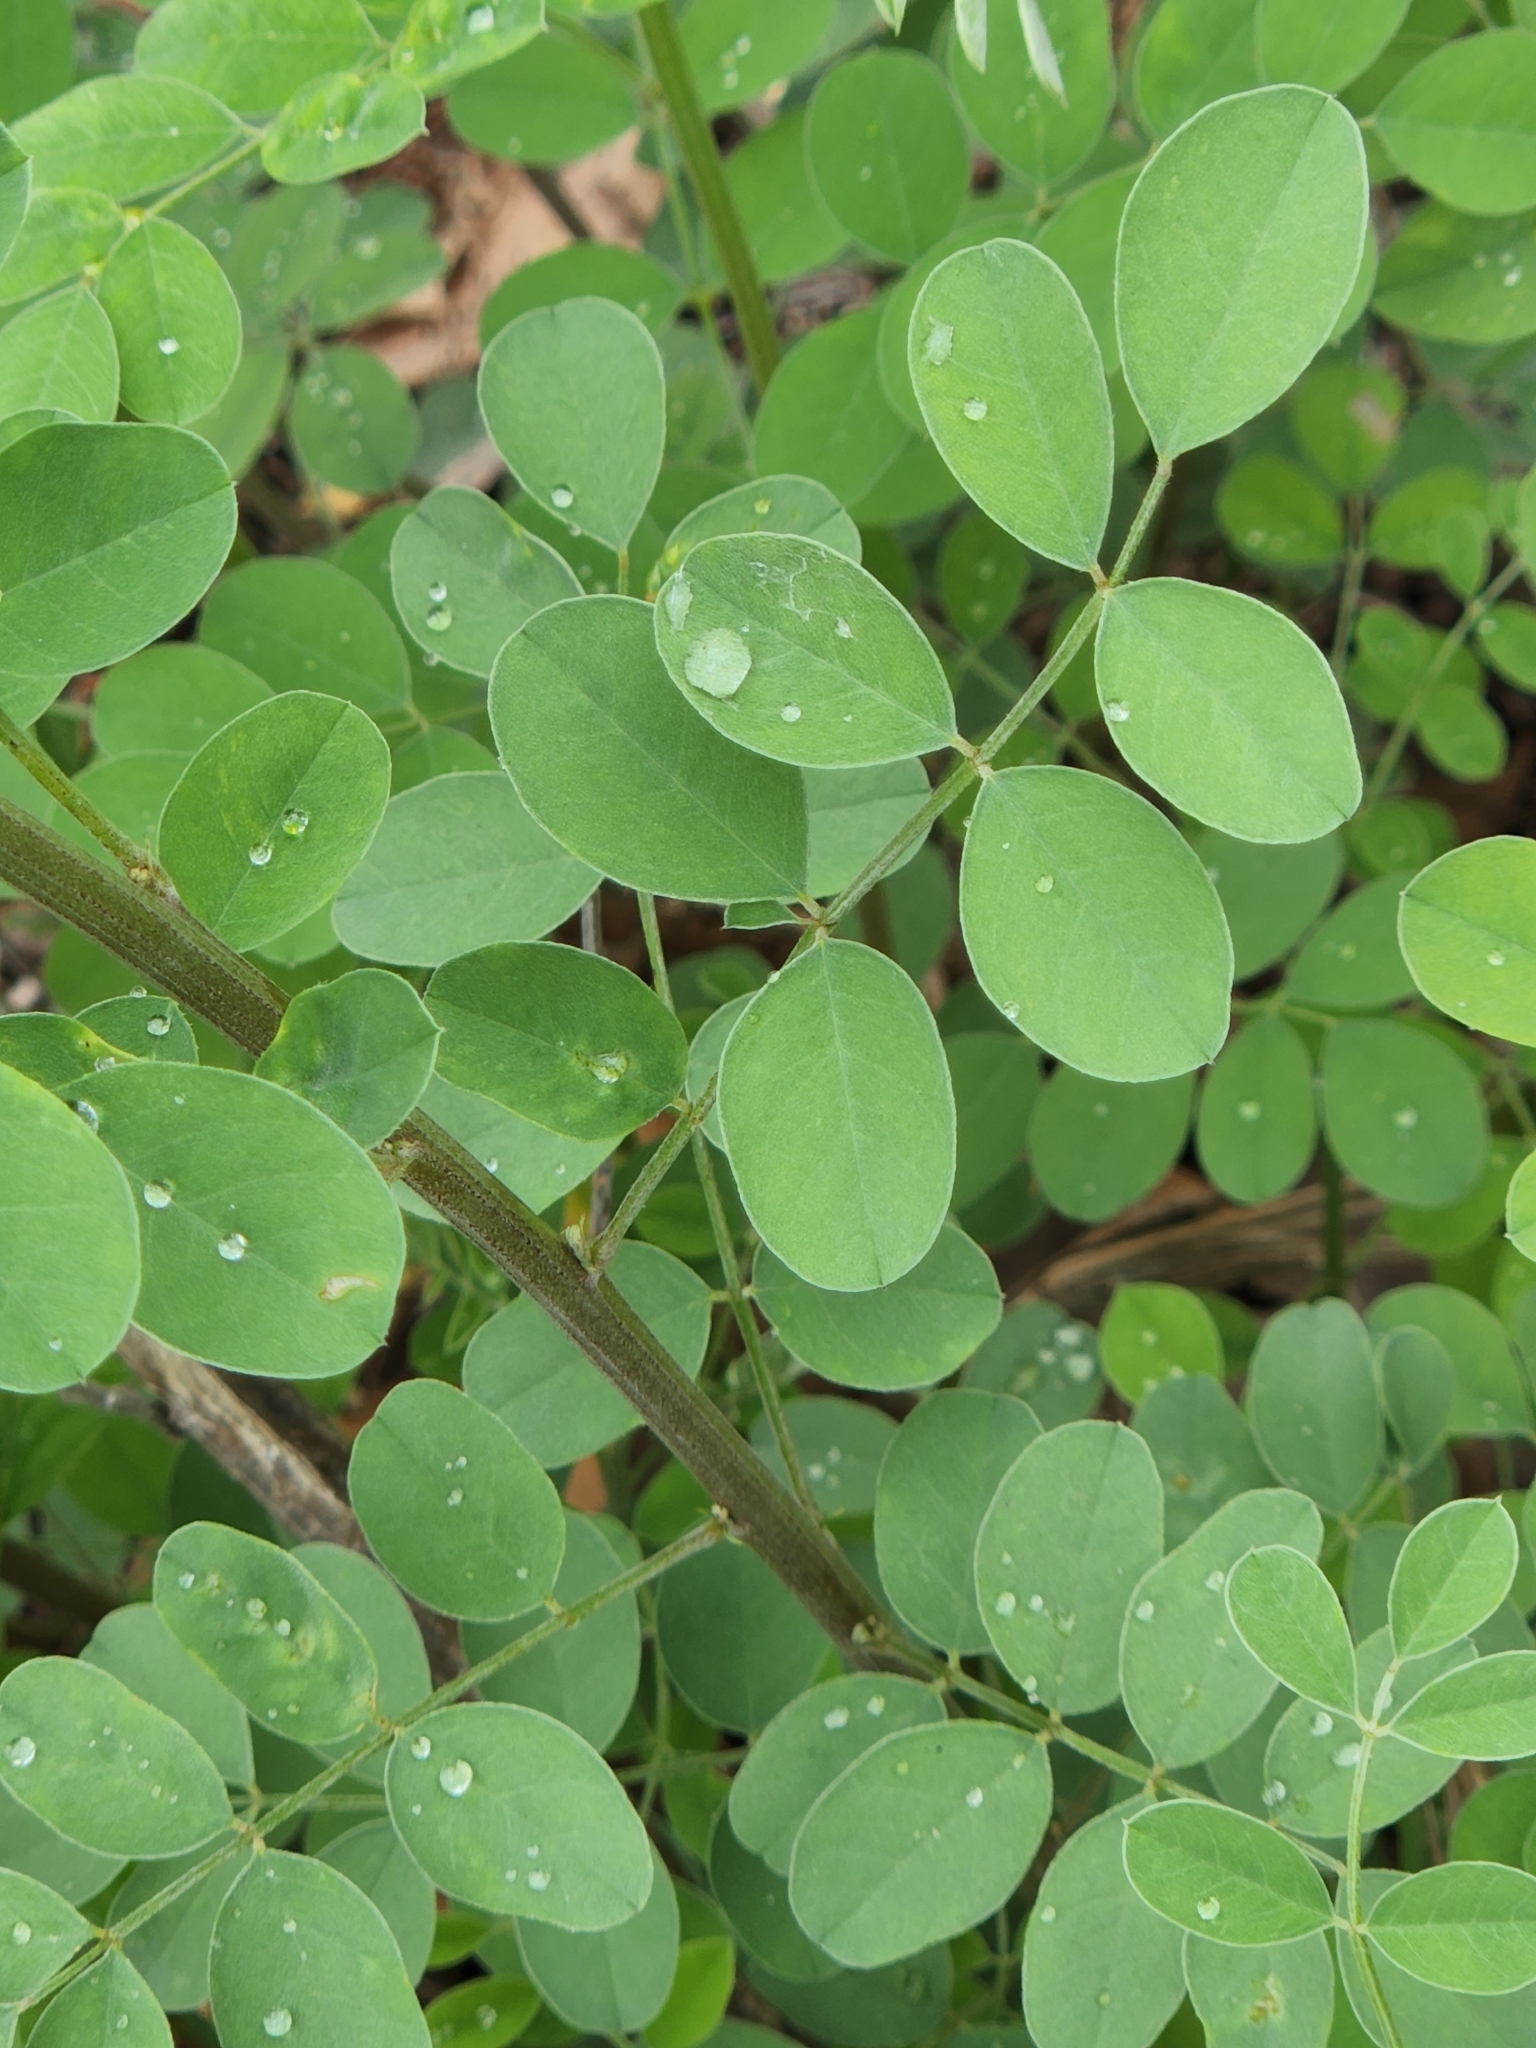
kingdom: Plantae
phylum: Tracheophyta
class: Magnoliopsida
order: Fabales
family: Fabaceae
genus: Indigofera
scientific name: Indigofera lindheimeriana
